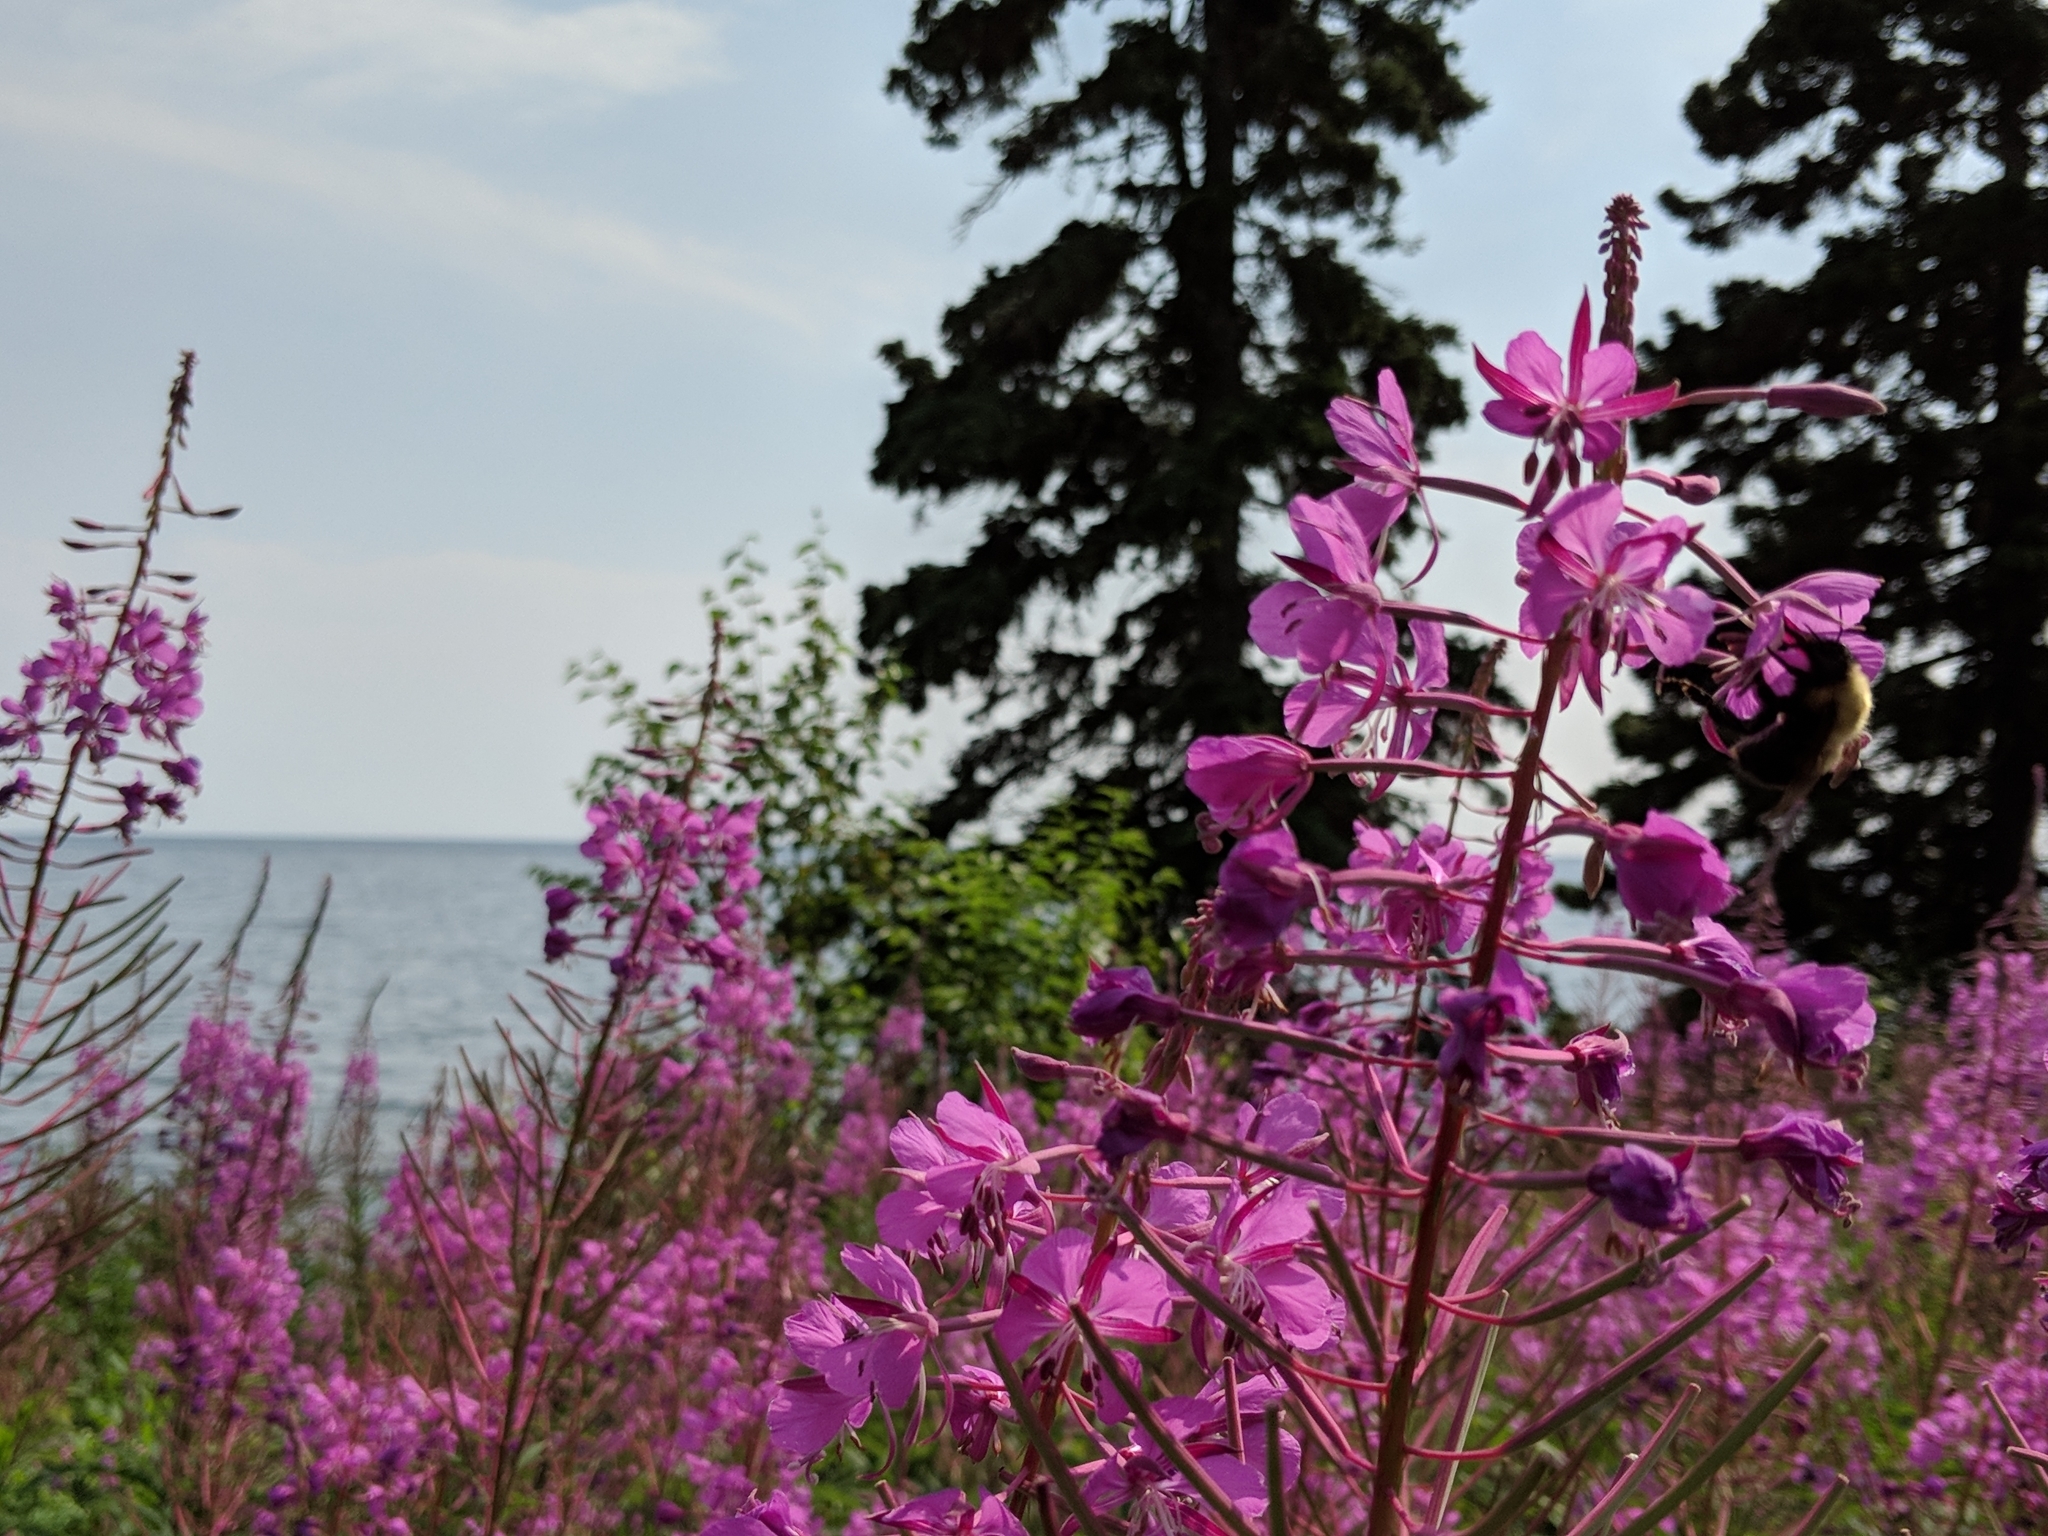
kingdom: Plantae
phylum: Tracheophyta
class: Magnoliopsida
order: Myrtales
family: Onagraceae
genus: Chamaenerion
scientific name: Chamaenerion angustifolium
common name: Fireweed
